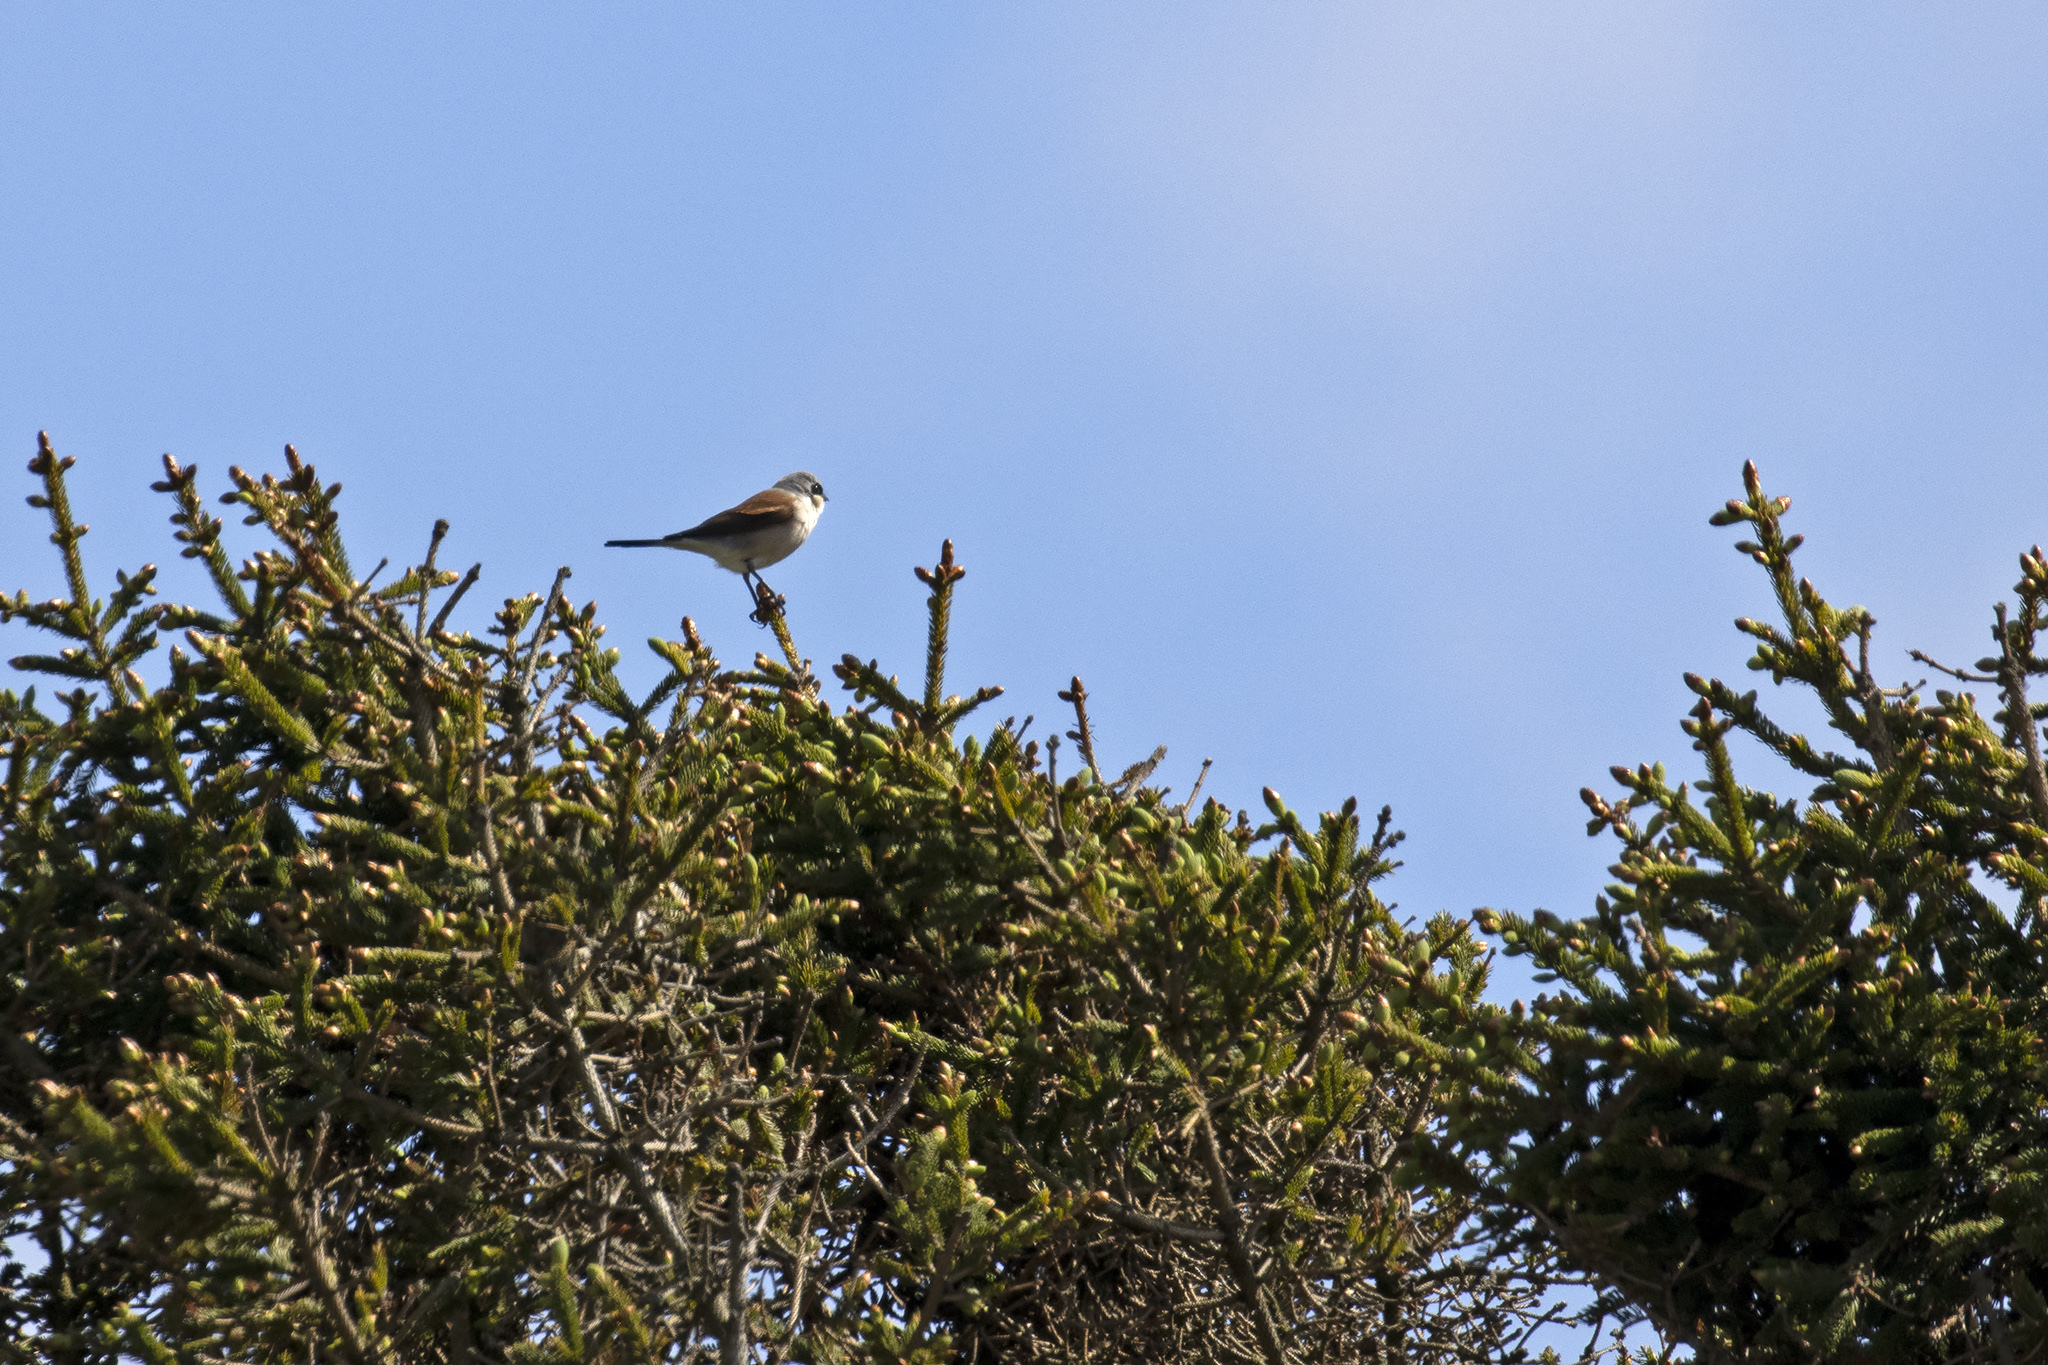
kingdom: Animalia
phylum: Chordata
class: Aves
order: Passeriformes
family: Laniidae
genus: Lanius
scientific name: Lanius collurio
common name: Red-backed shrike
